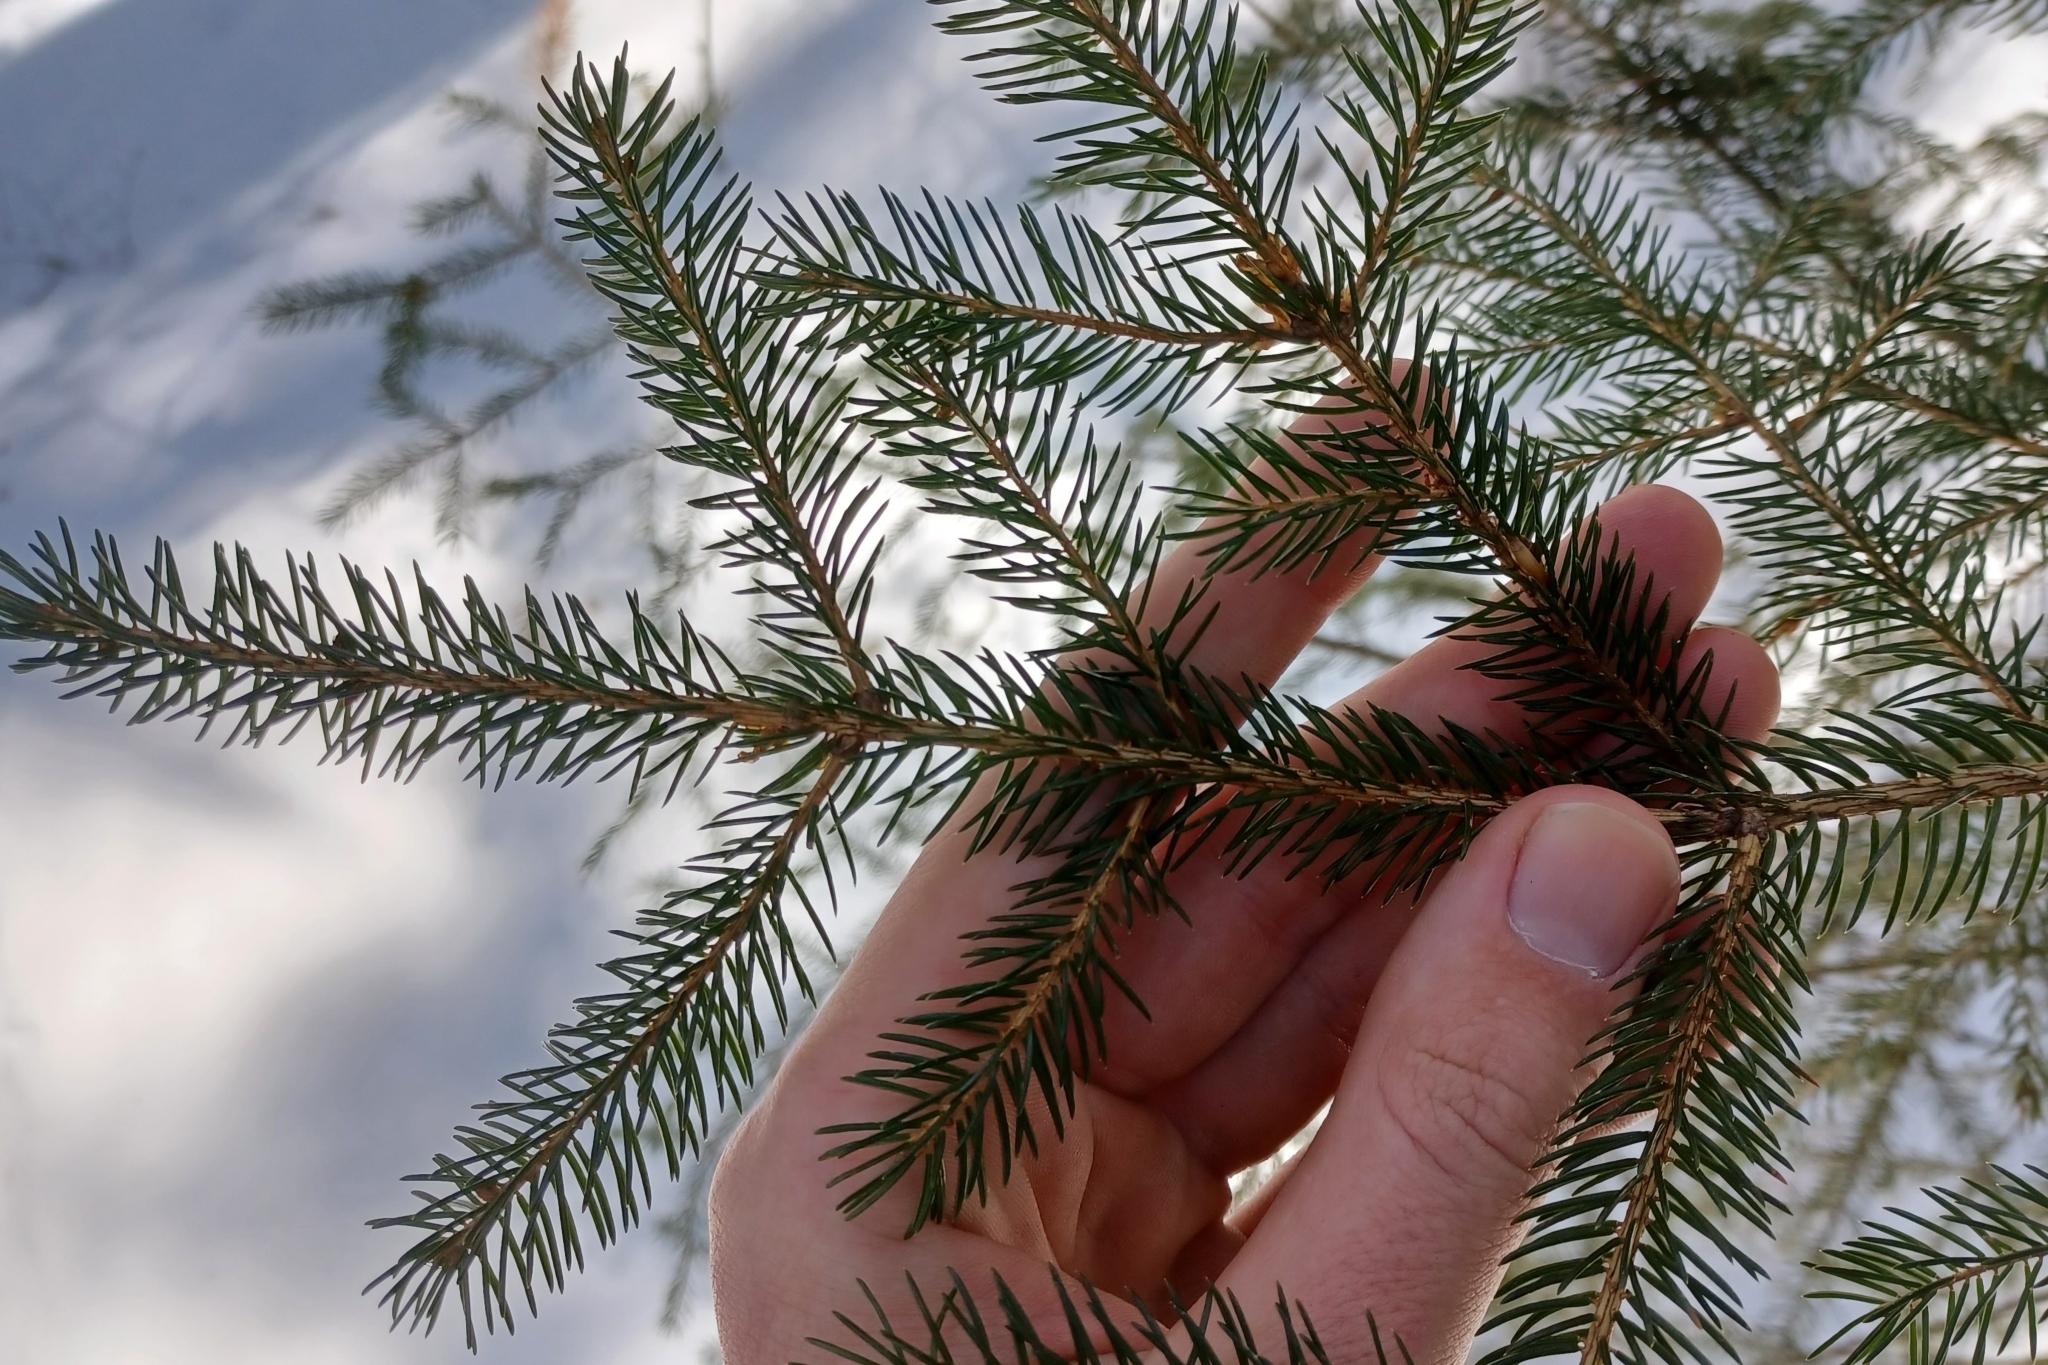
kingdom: Plantae
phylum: Tracheophyta
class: Pinopsida
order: Pinales
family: Pinaceae
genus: Picea
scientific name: Picea rubens
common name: Red spruce
